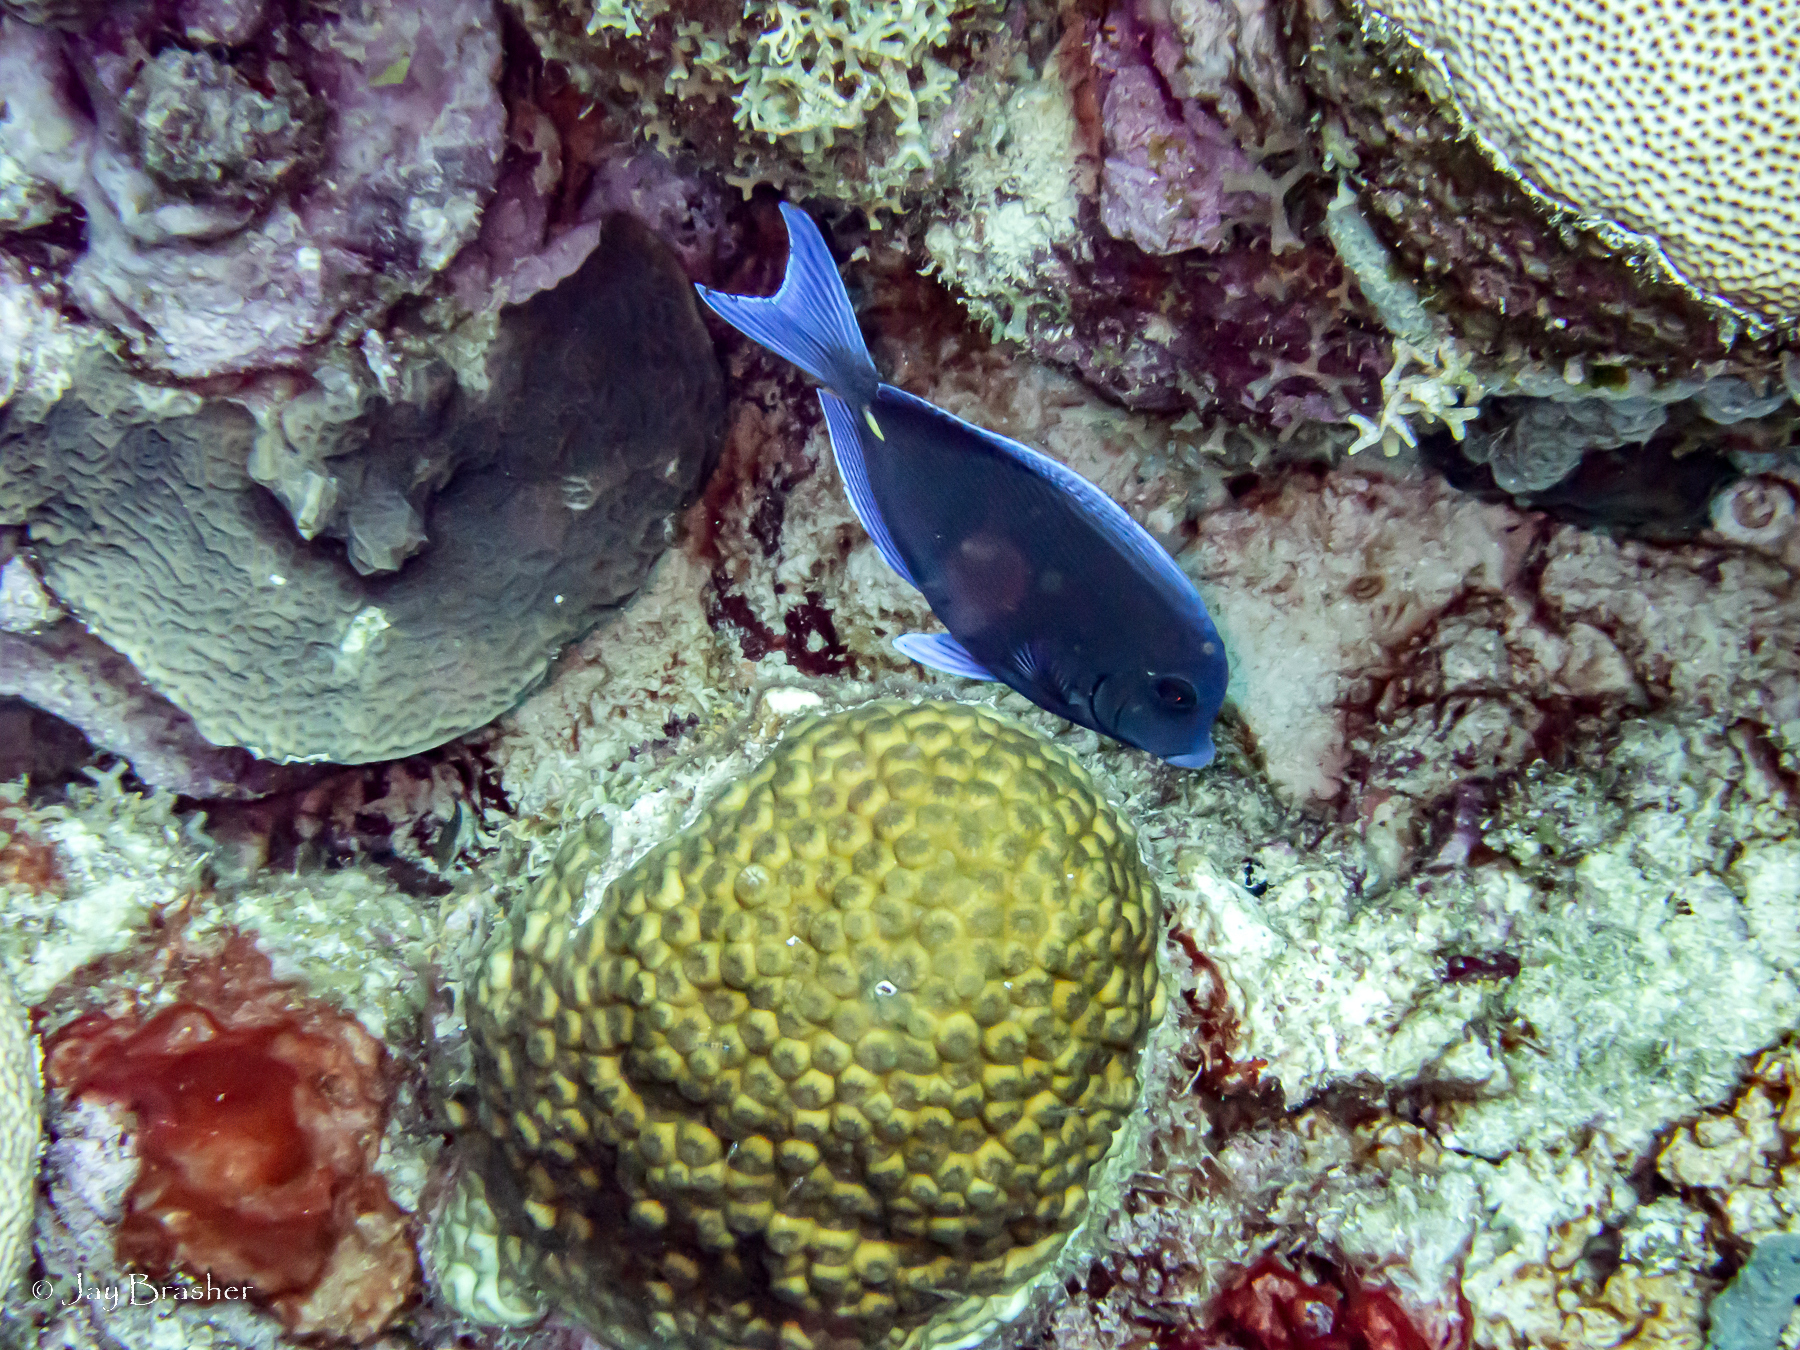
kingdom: Animalia
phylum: Cnidaria
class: Anthozoa
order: Scleractinia
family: Montastraeidae
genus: Montastraea
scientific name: Montastraea cavernosa
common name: Great star coral
